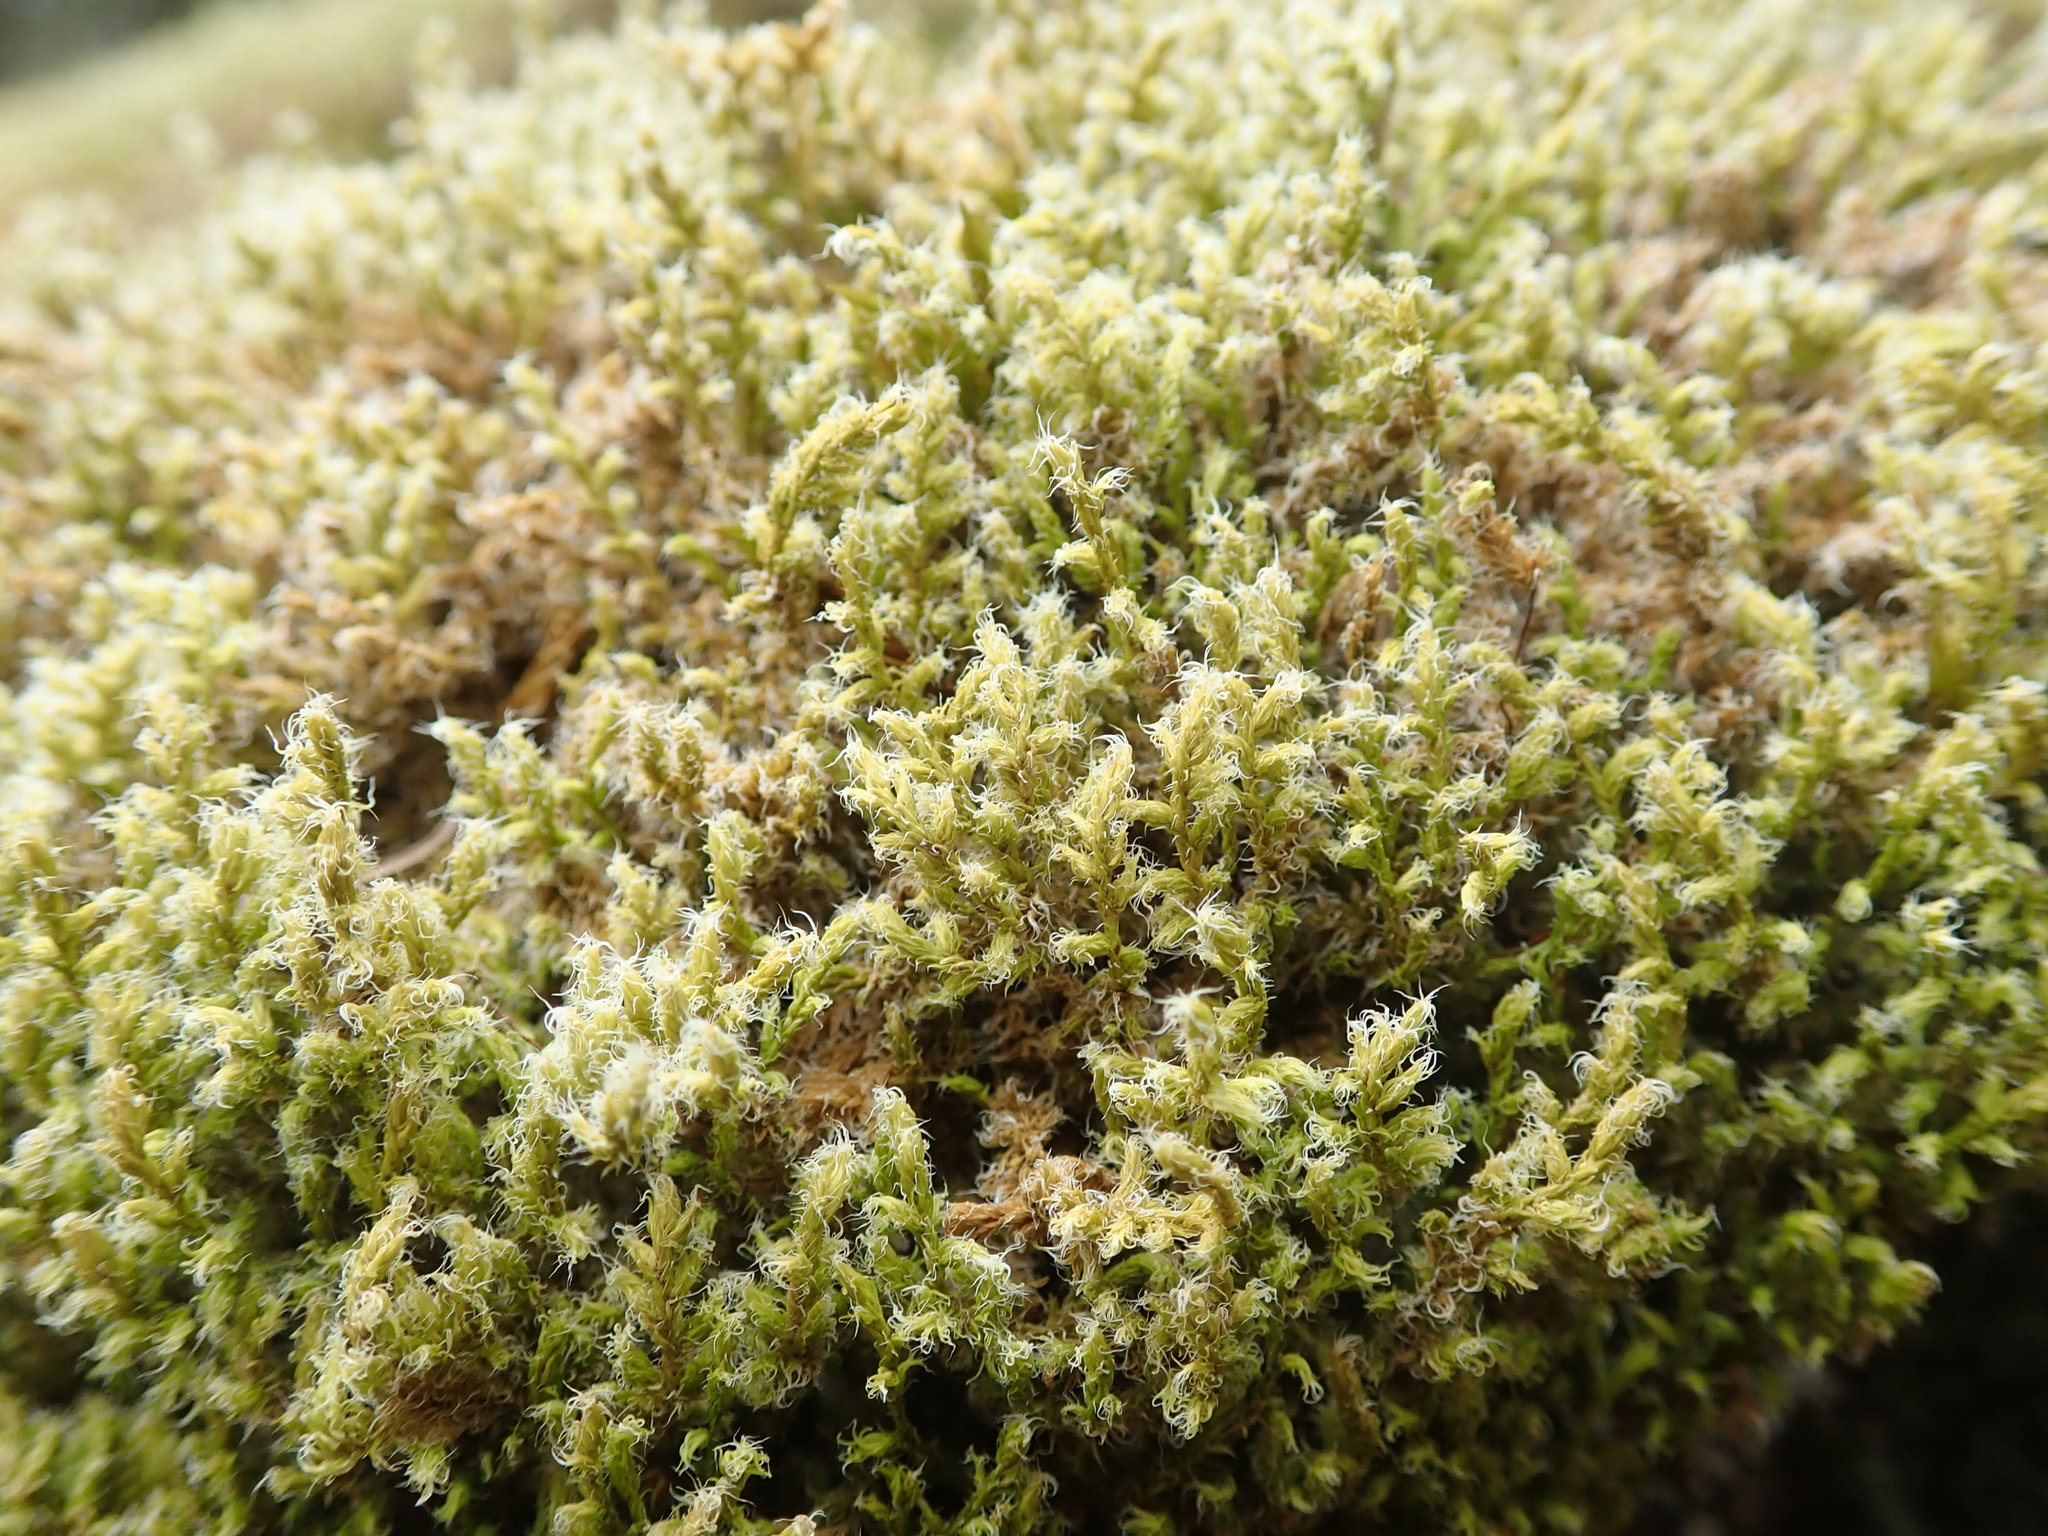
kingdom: Plantae
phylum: Bryophyta
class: Bryopsida
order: Grimmiales
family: Grimmiaceae
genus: Niphotrichum
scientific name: Niphotrichum elongatum
